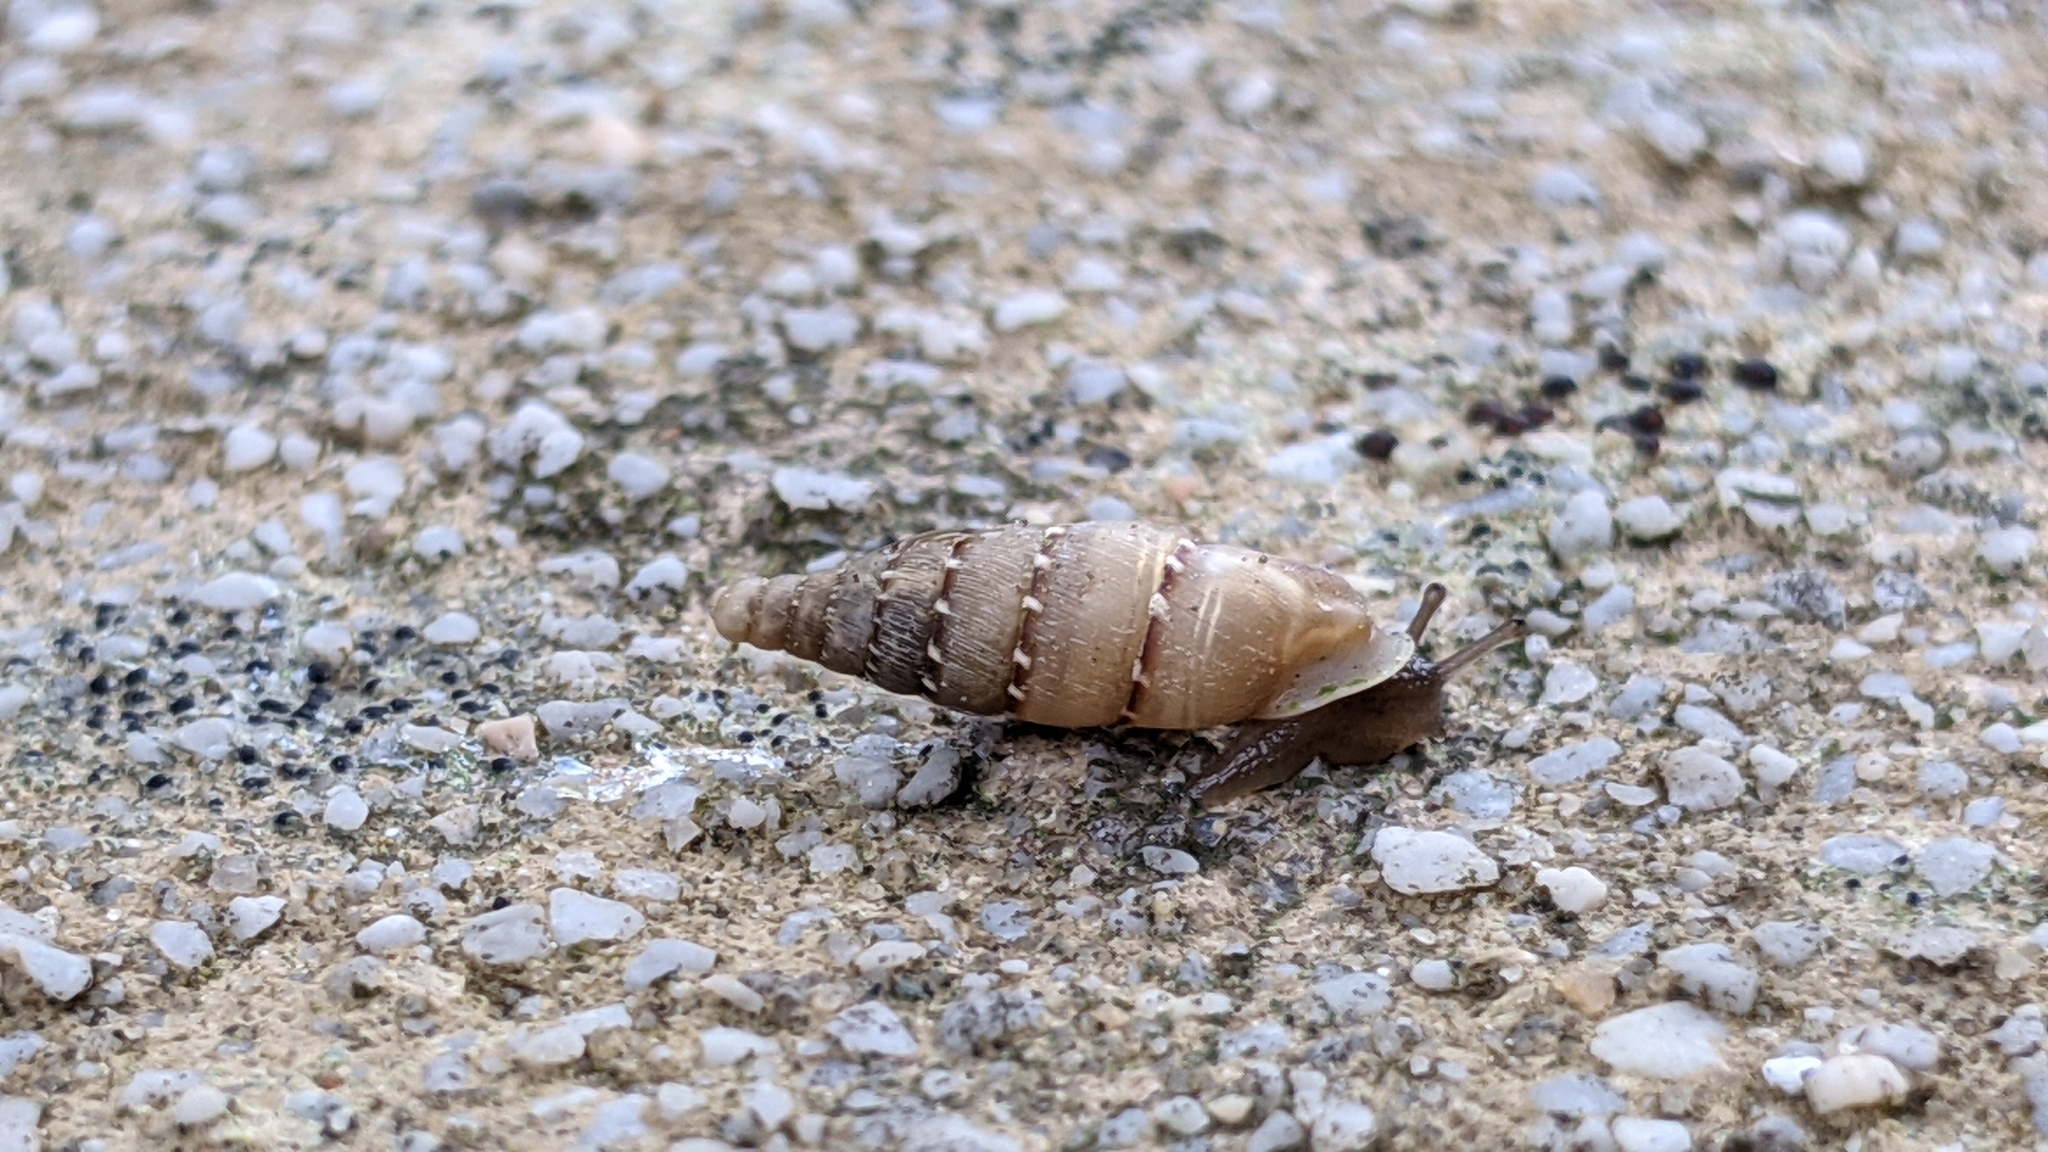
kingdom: Animalia
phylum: Mollusca
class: Gastropoda
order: Stylommatophora
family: Clausiliidae
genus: Papillifera
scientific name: Papillifera papillaris
